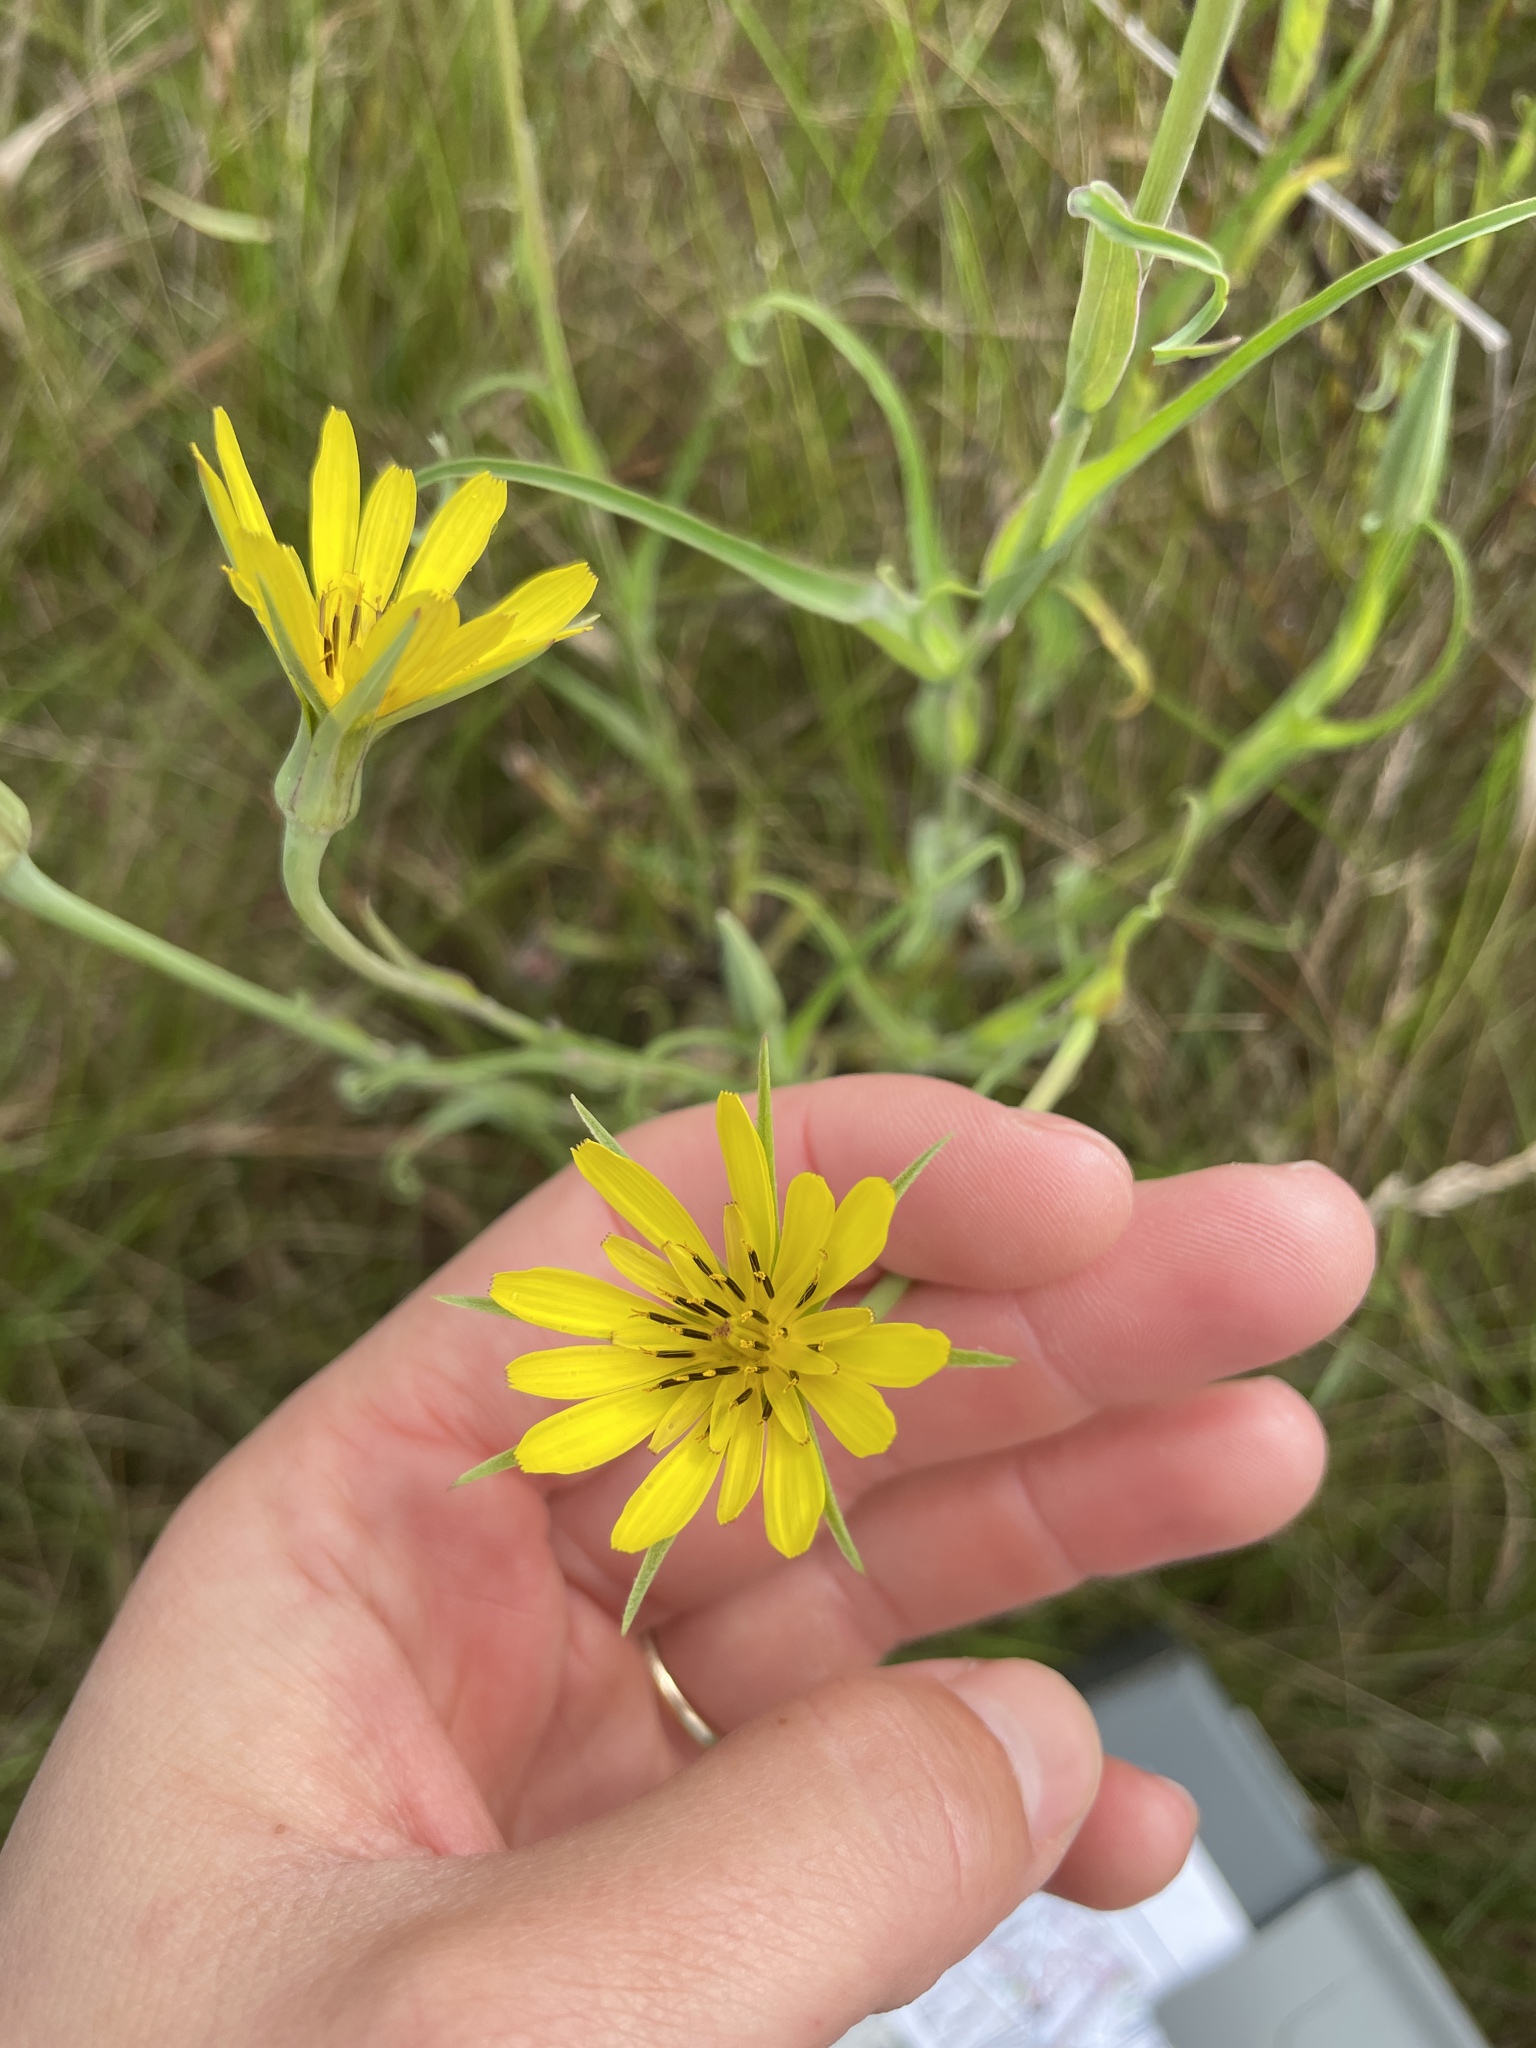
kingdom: Plantae
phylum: Tracheophyta
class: Magnoliopsida
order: Asterales
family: Asteraceae
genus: Tragopogon
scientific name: Tragopogon dubius
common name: Yellow salsify
